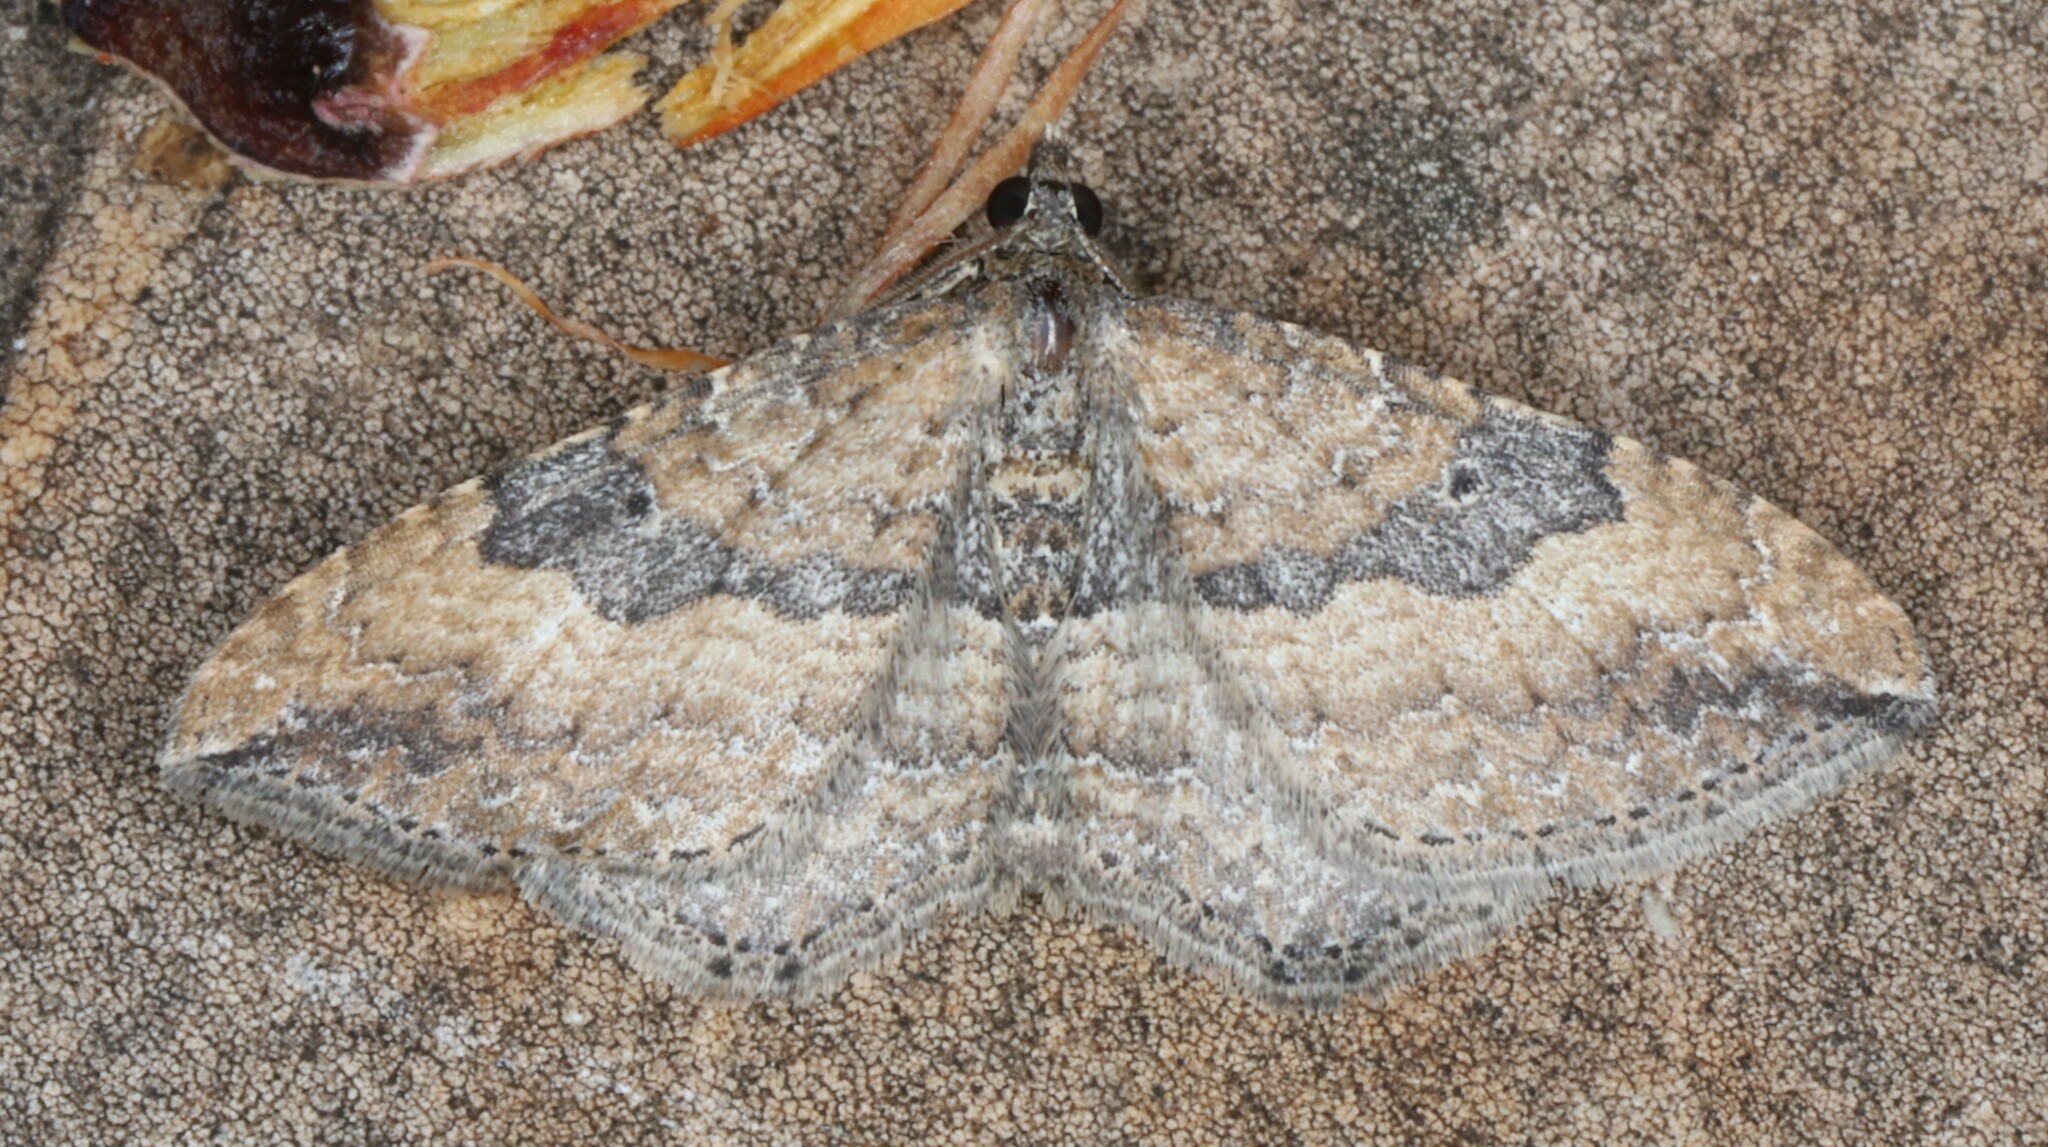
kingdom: Animalia
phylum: Arthropoda
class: Insecta
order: Lepidoptera
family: Geometridae
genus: Orthonama
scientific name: Orthonama obstipata
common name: The gem
